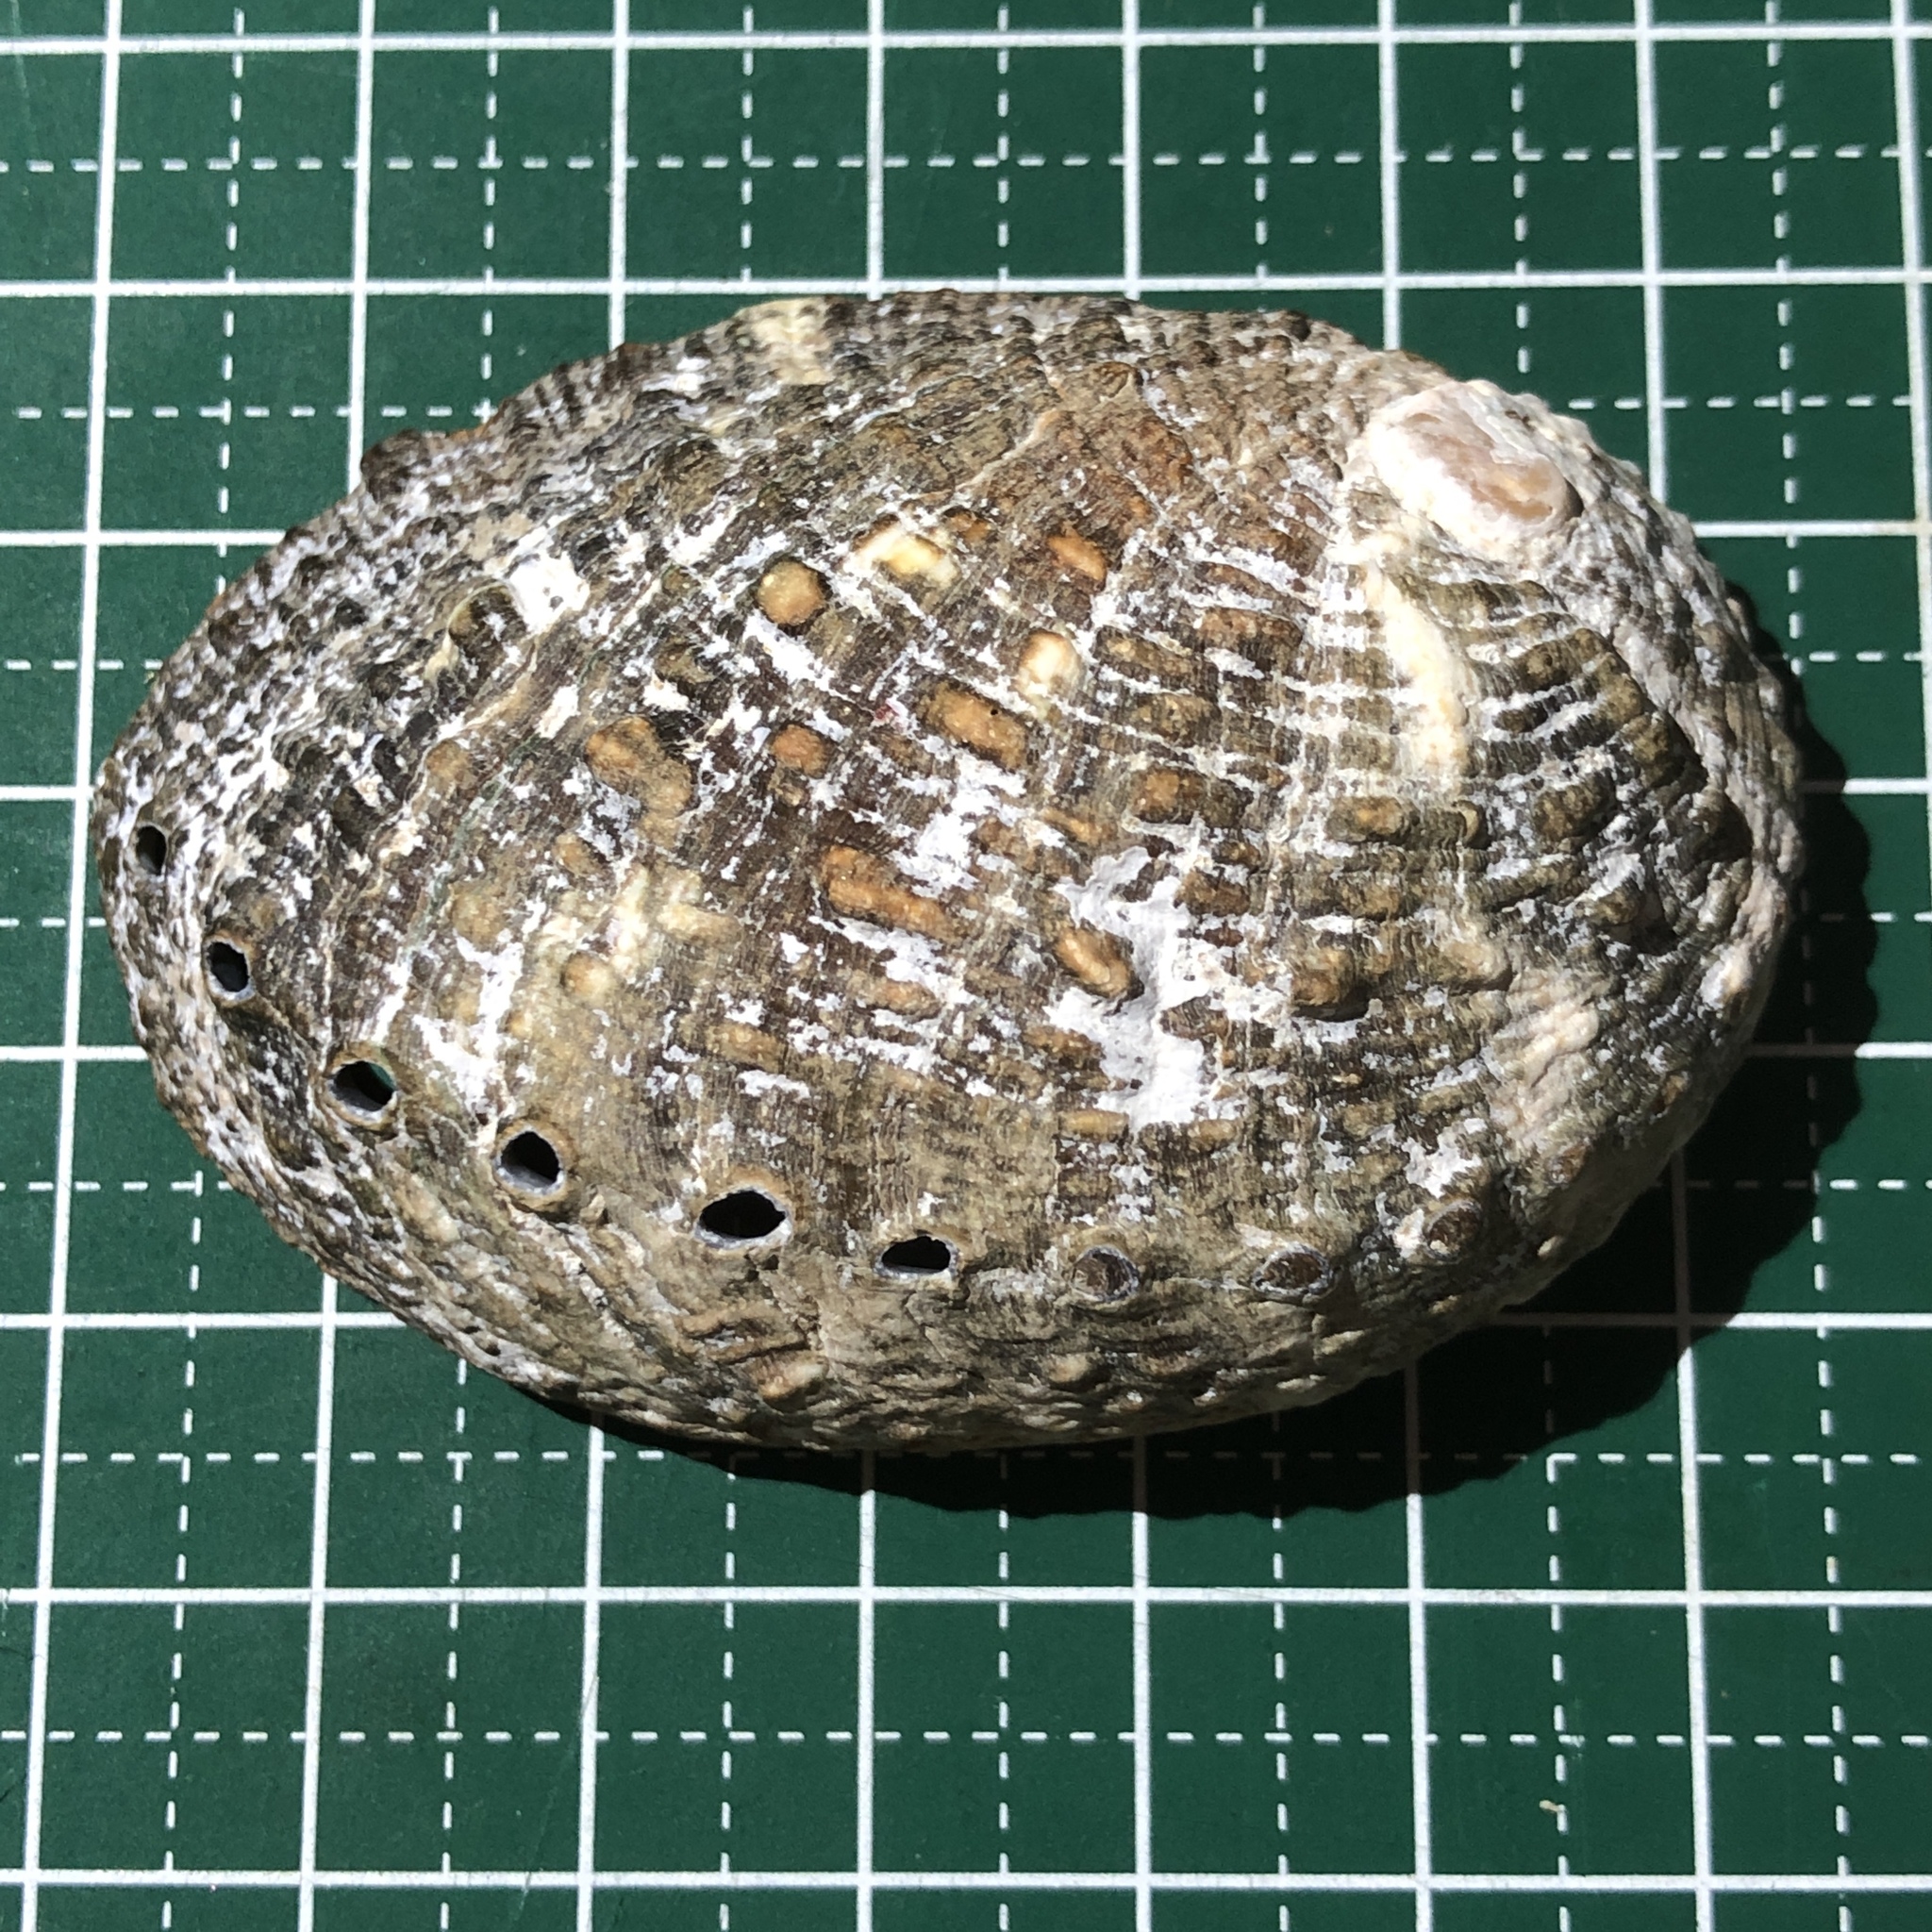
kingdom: Animalia
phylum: Mollusca
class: Gastropoda
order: Lepetellida
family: Haliotidae
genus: Haliotis
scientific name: Haliotis varia
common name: Variable abalone
